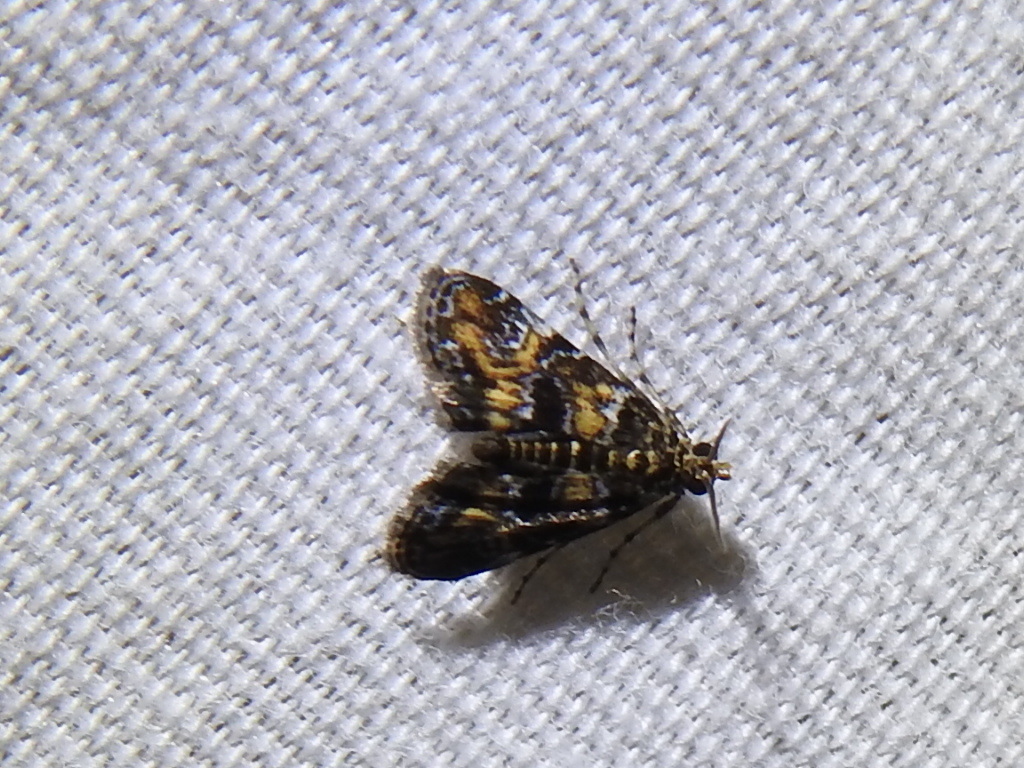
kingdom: Animalia
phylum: Arthropoda
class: Insecta
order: Lepidoptera
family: Crambidae
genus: Elophila
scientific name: Elophila obliteralis
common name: Waterlily leafcutter moth
